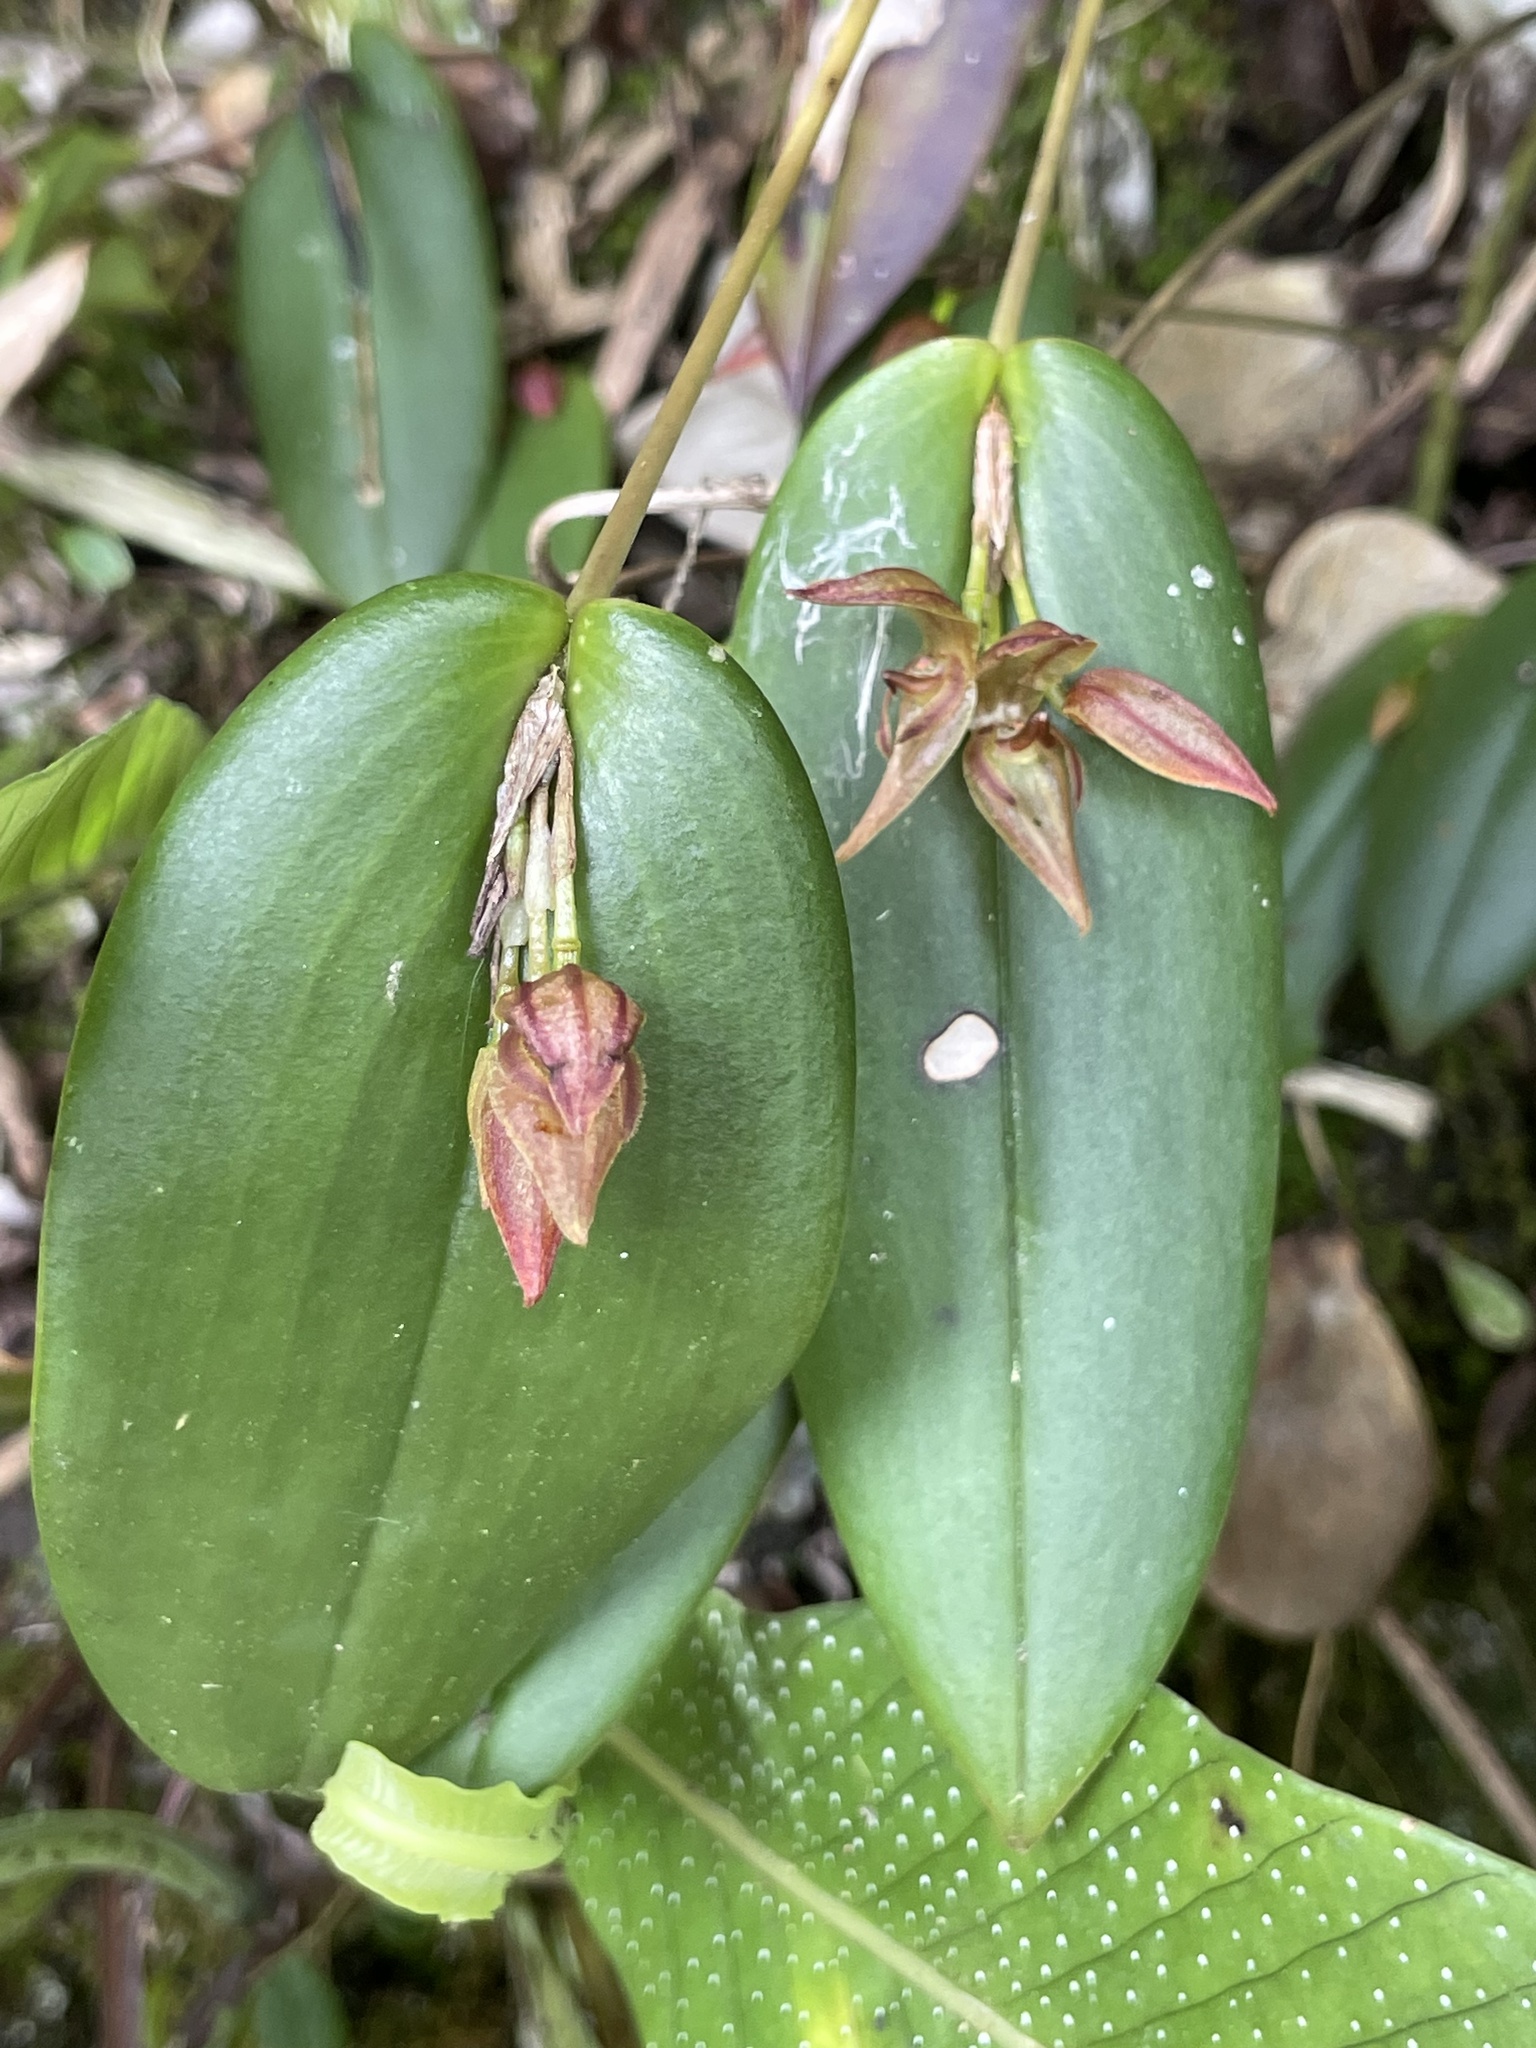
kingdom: Plantae
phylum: Tracheophyta
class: Liliopsida
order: Asparagales
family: Orchidaceae
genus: Pleurothallis
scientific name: Pleurothallis siphoglossa
